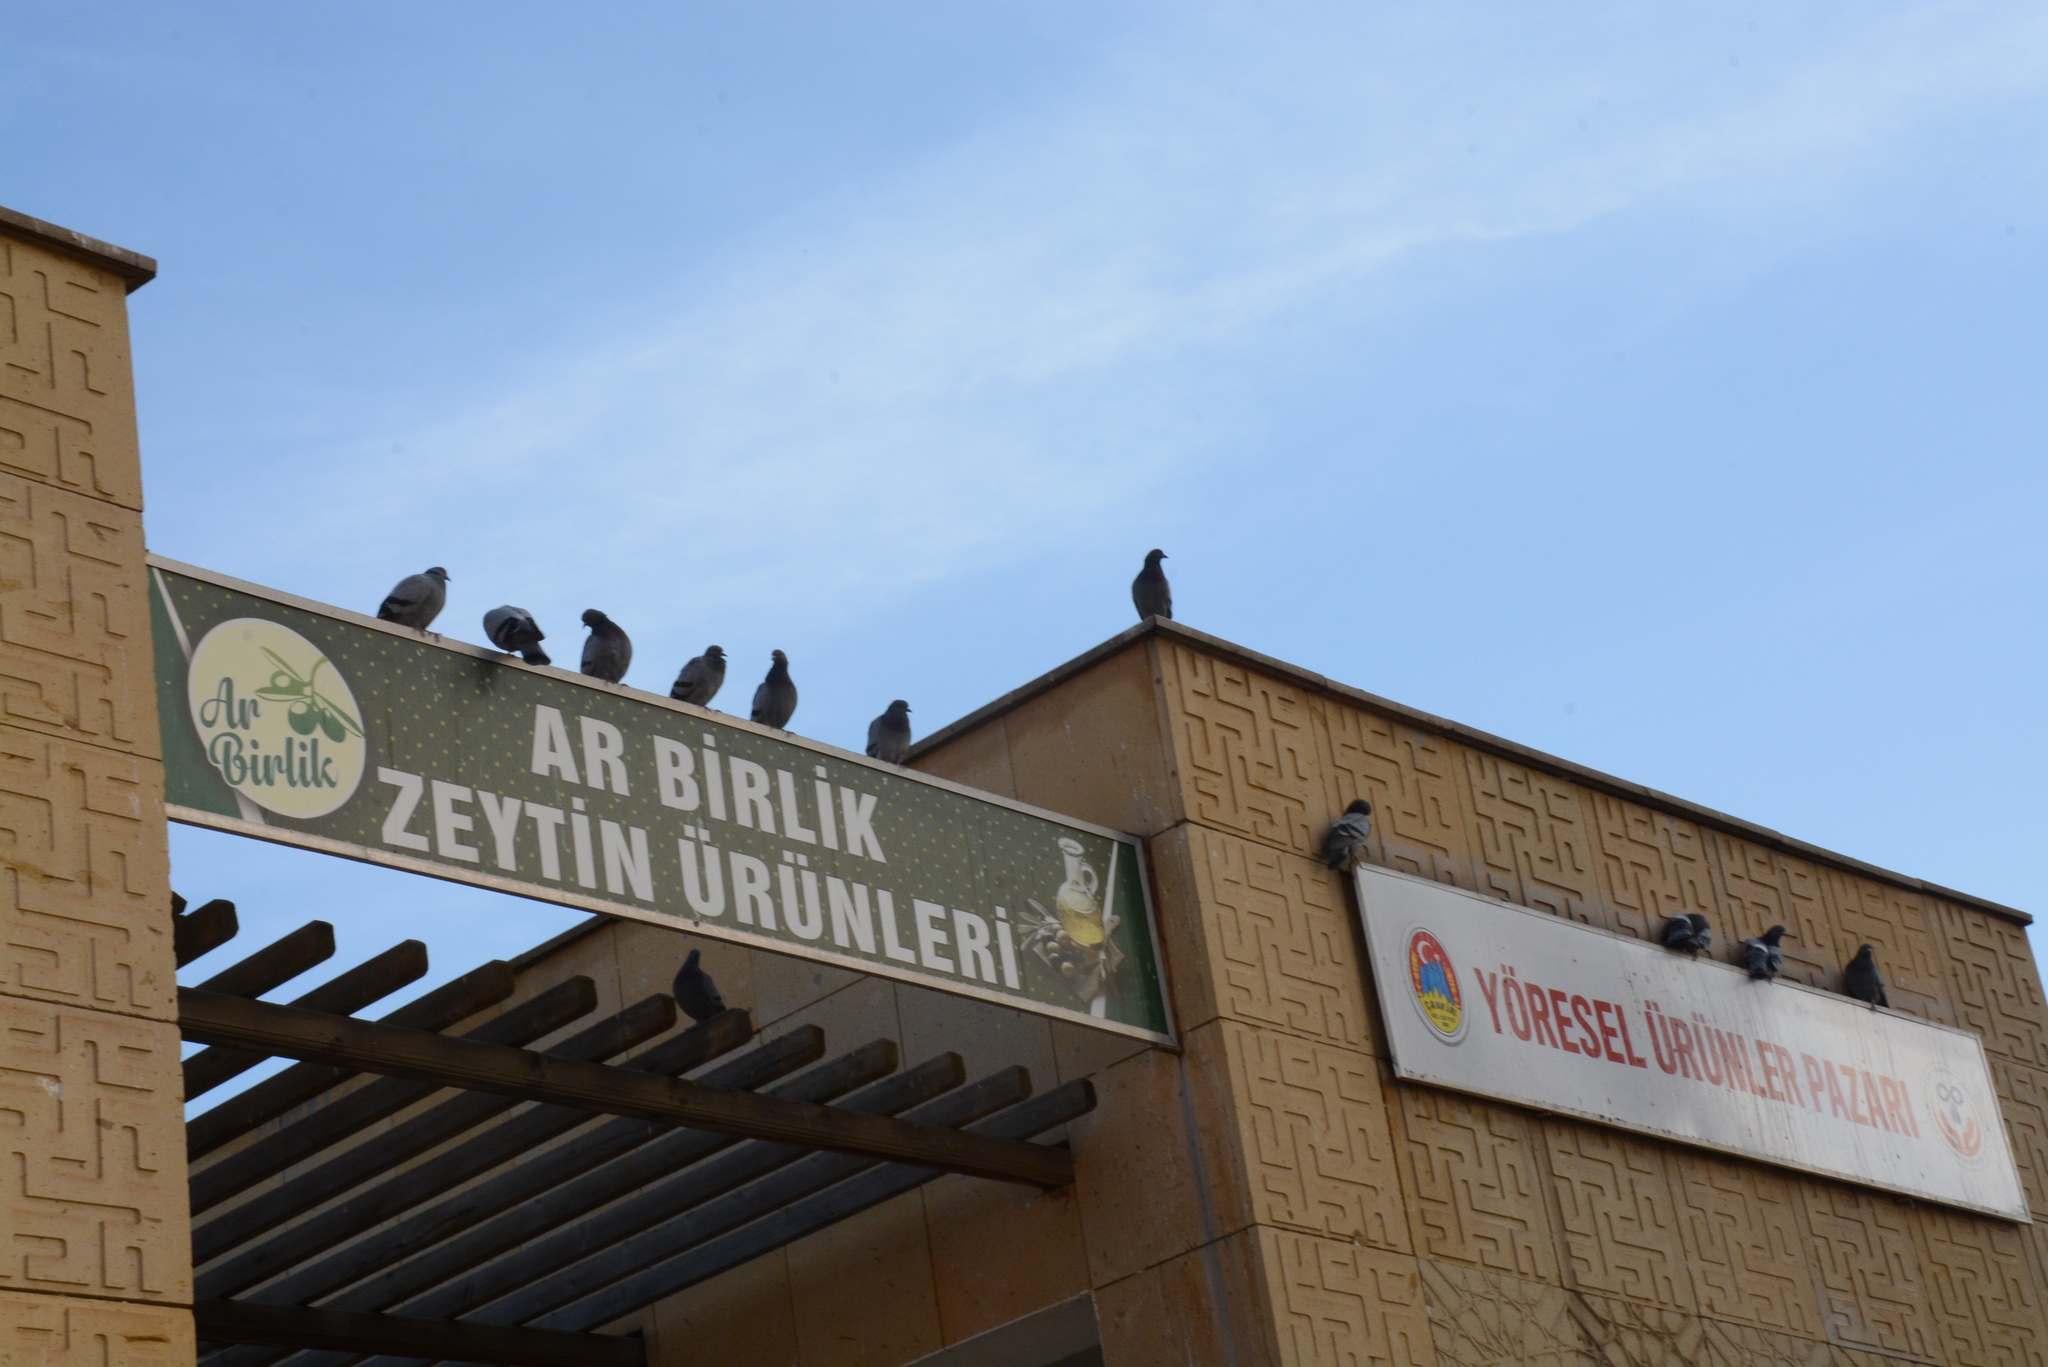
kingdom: Animalia
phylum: Chordata
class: Aves
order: Columbiformes
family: Columbidae
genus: Columba
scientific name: Columba livia
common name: Rock pigeon
